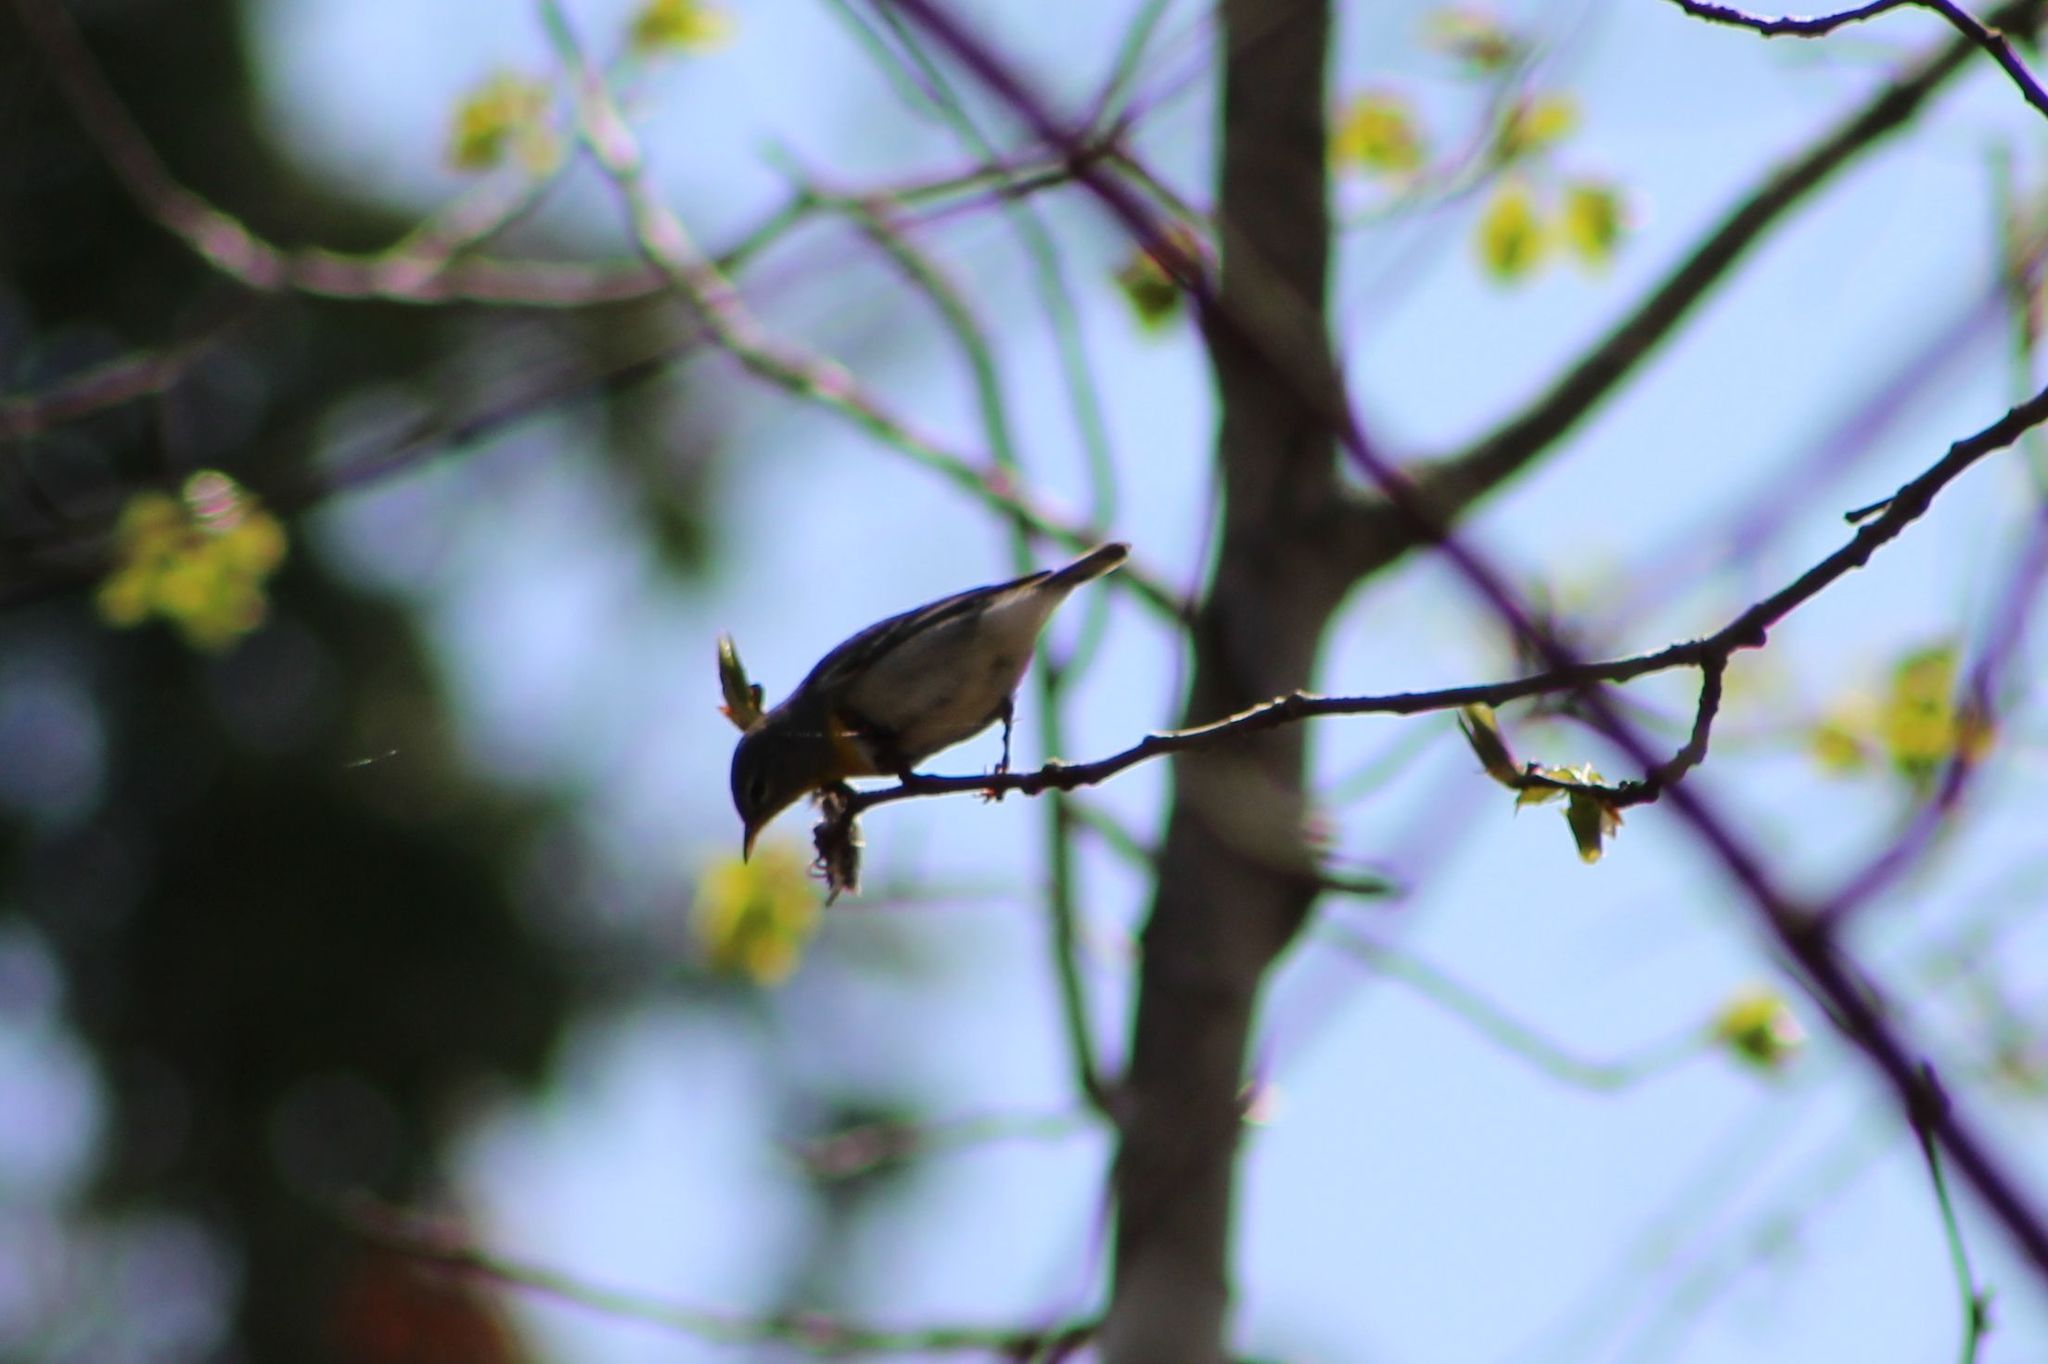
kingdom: Animalia
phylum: Chordata
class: Aves
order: Passeriformes
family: Parulidae
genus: Setophaga
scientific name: Setophaga americana
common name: Northern parula
